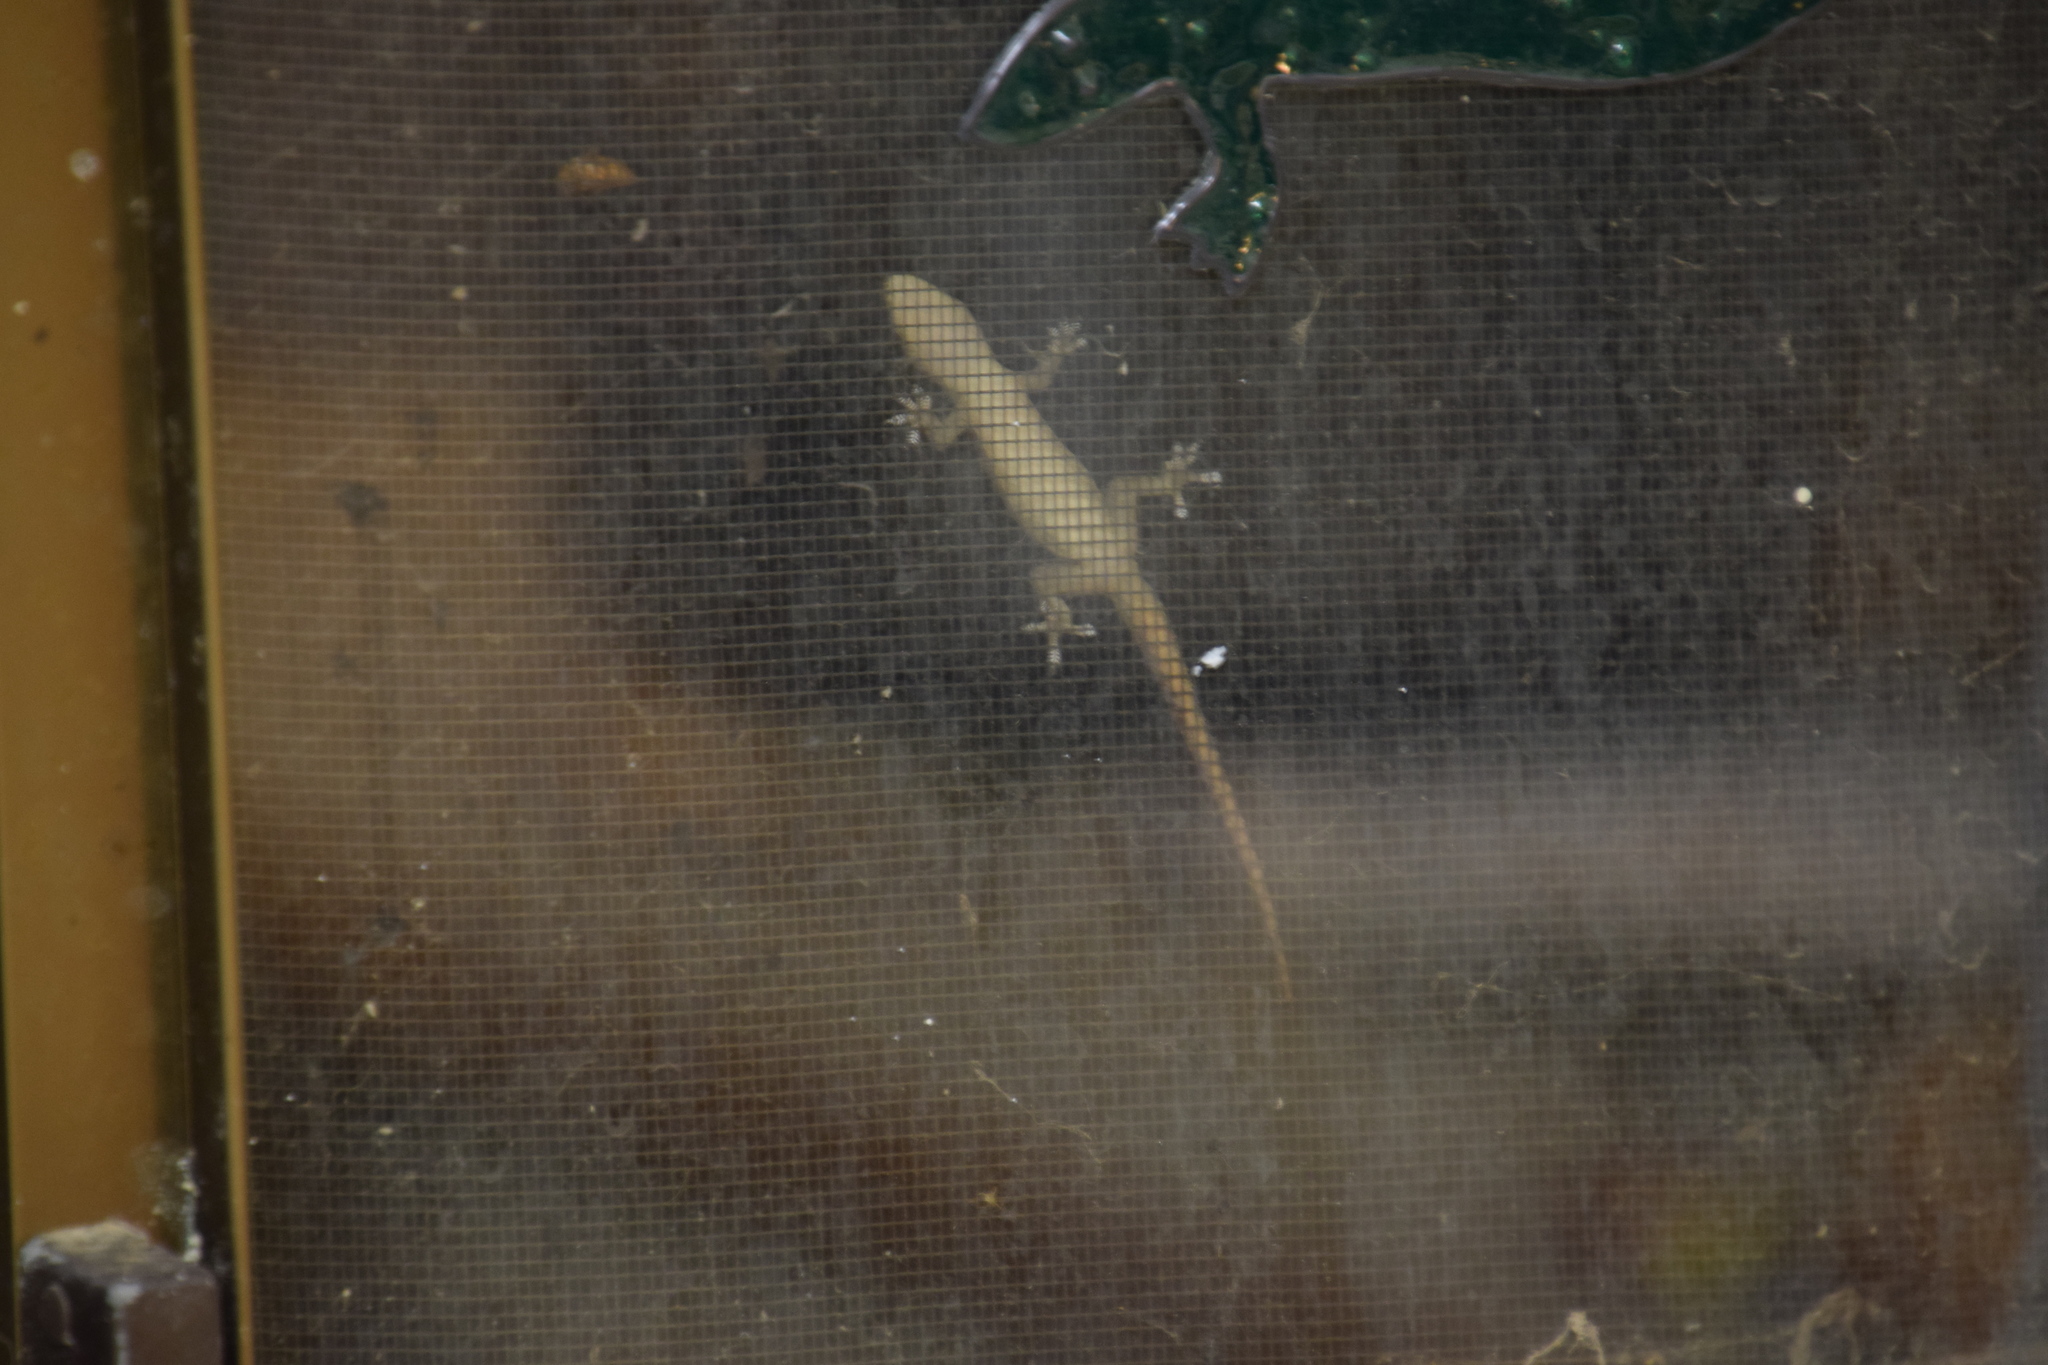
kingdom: Animalia
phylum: Chordata
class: Squamata
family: Gekkonidae
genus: Hemidactylus
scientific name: Hemidactylus frenatus
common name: Common house gecko
